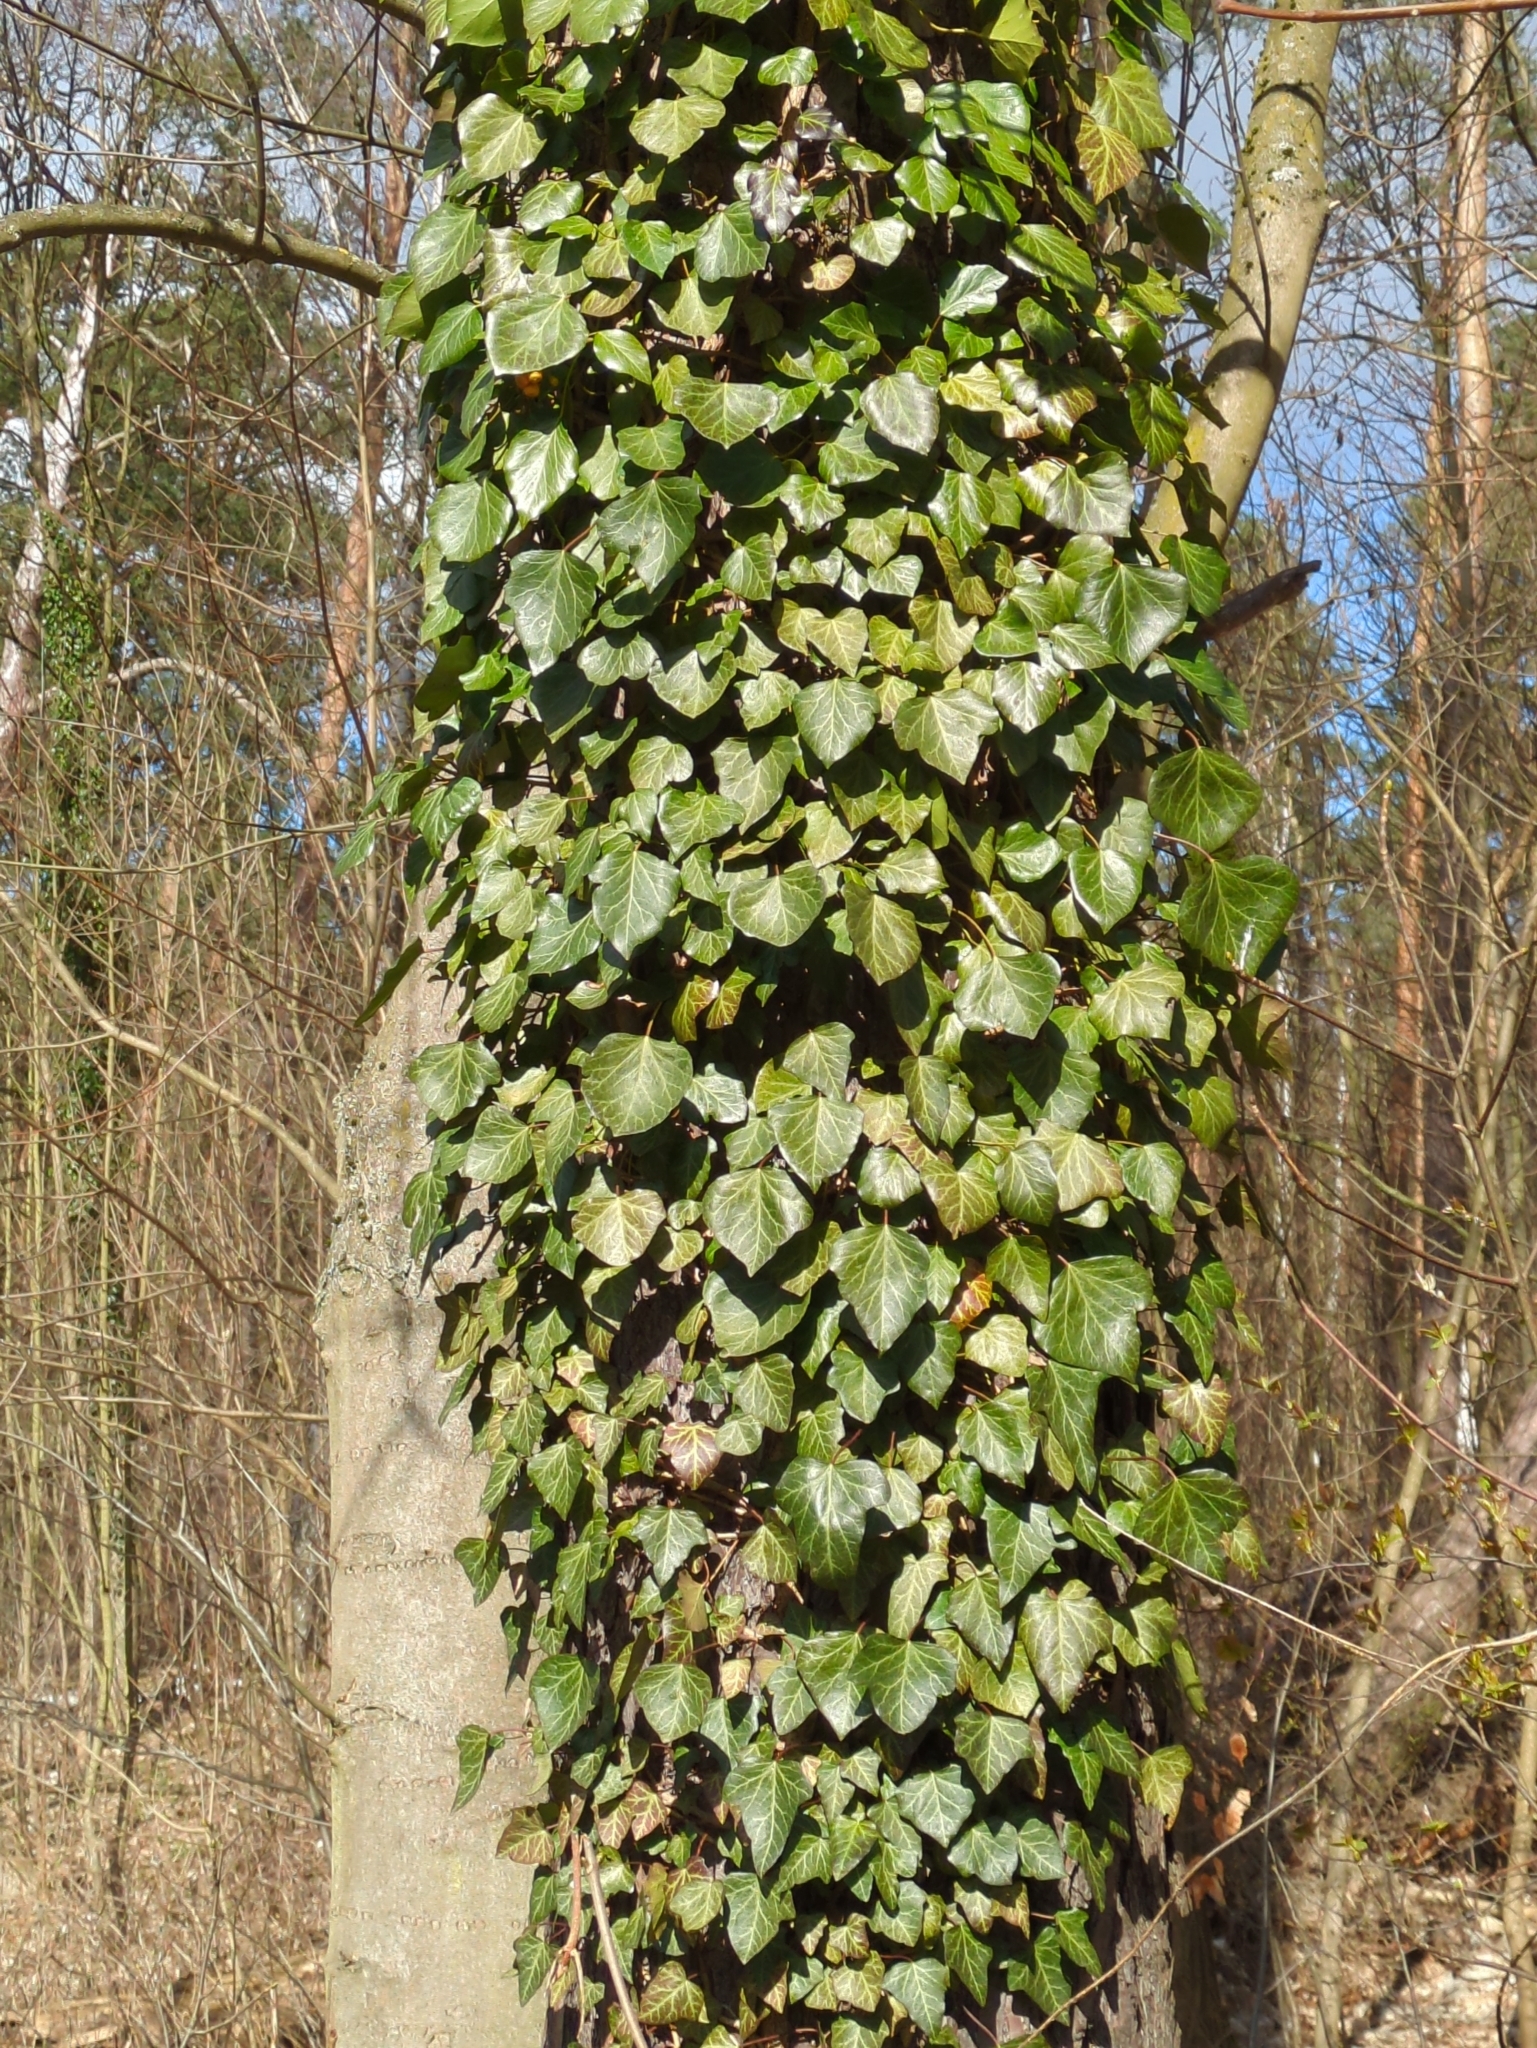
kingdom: Plantae
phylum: Tracheophyta
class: Magnoliopsida
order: Apiales
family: Araliaceae
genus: Hedera
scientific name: Hedera helix
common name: Ivy
